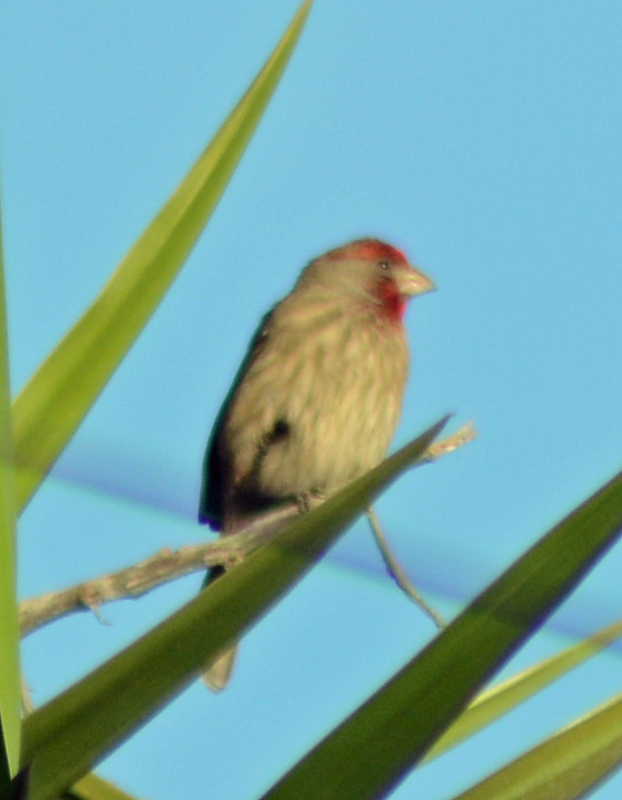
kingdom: Animalia
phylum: Chordata
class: Aves
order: Passeriformes
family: Fringillidae
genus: Haemorhous
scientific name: Haemorhous mexicanus
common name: House finch
